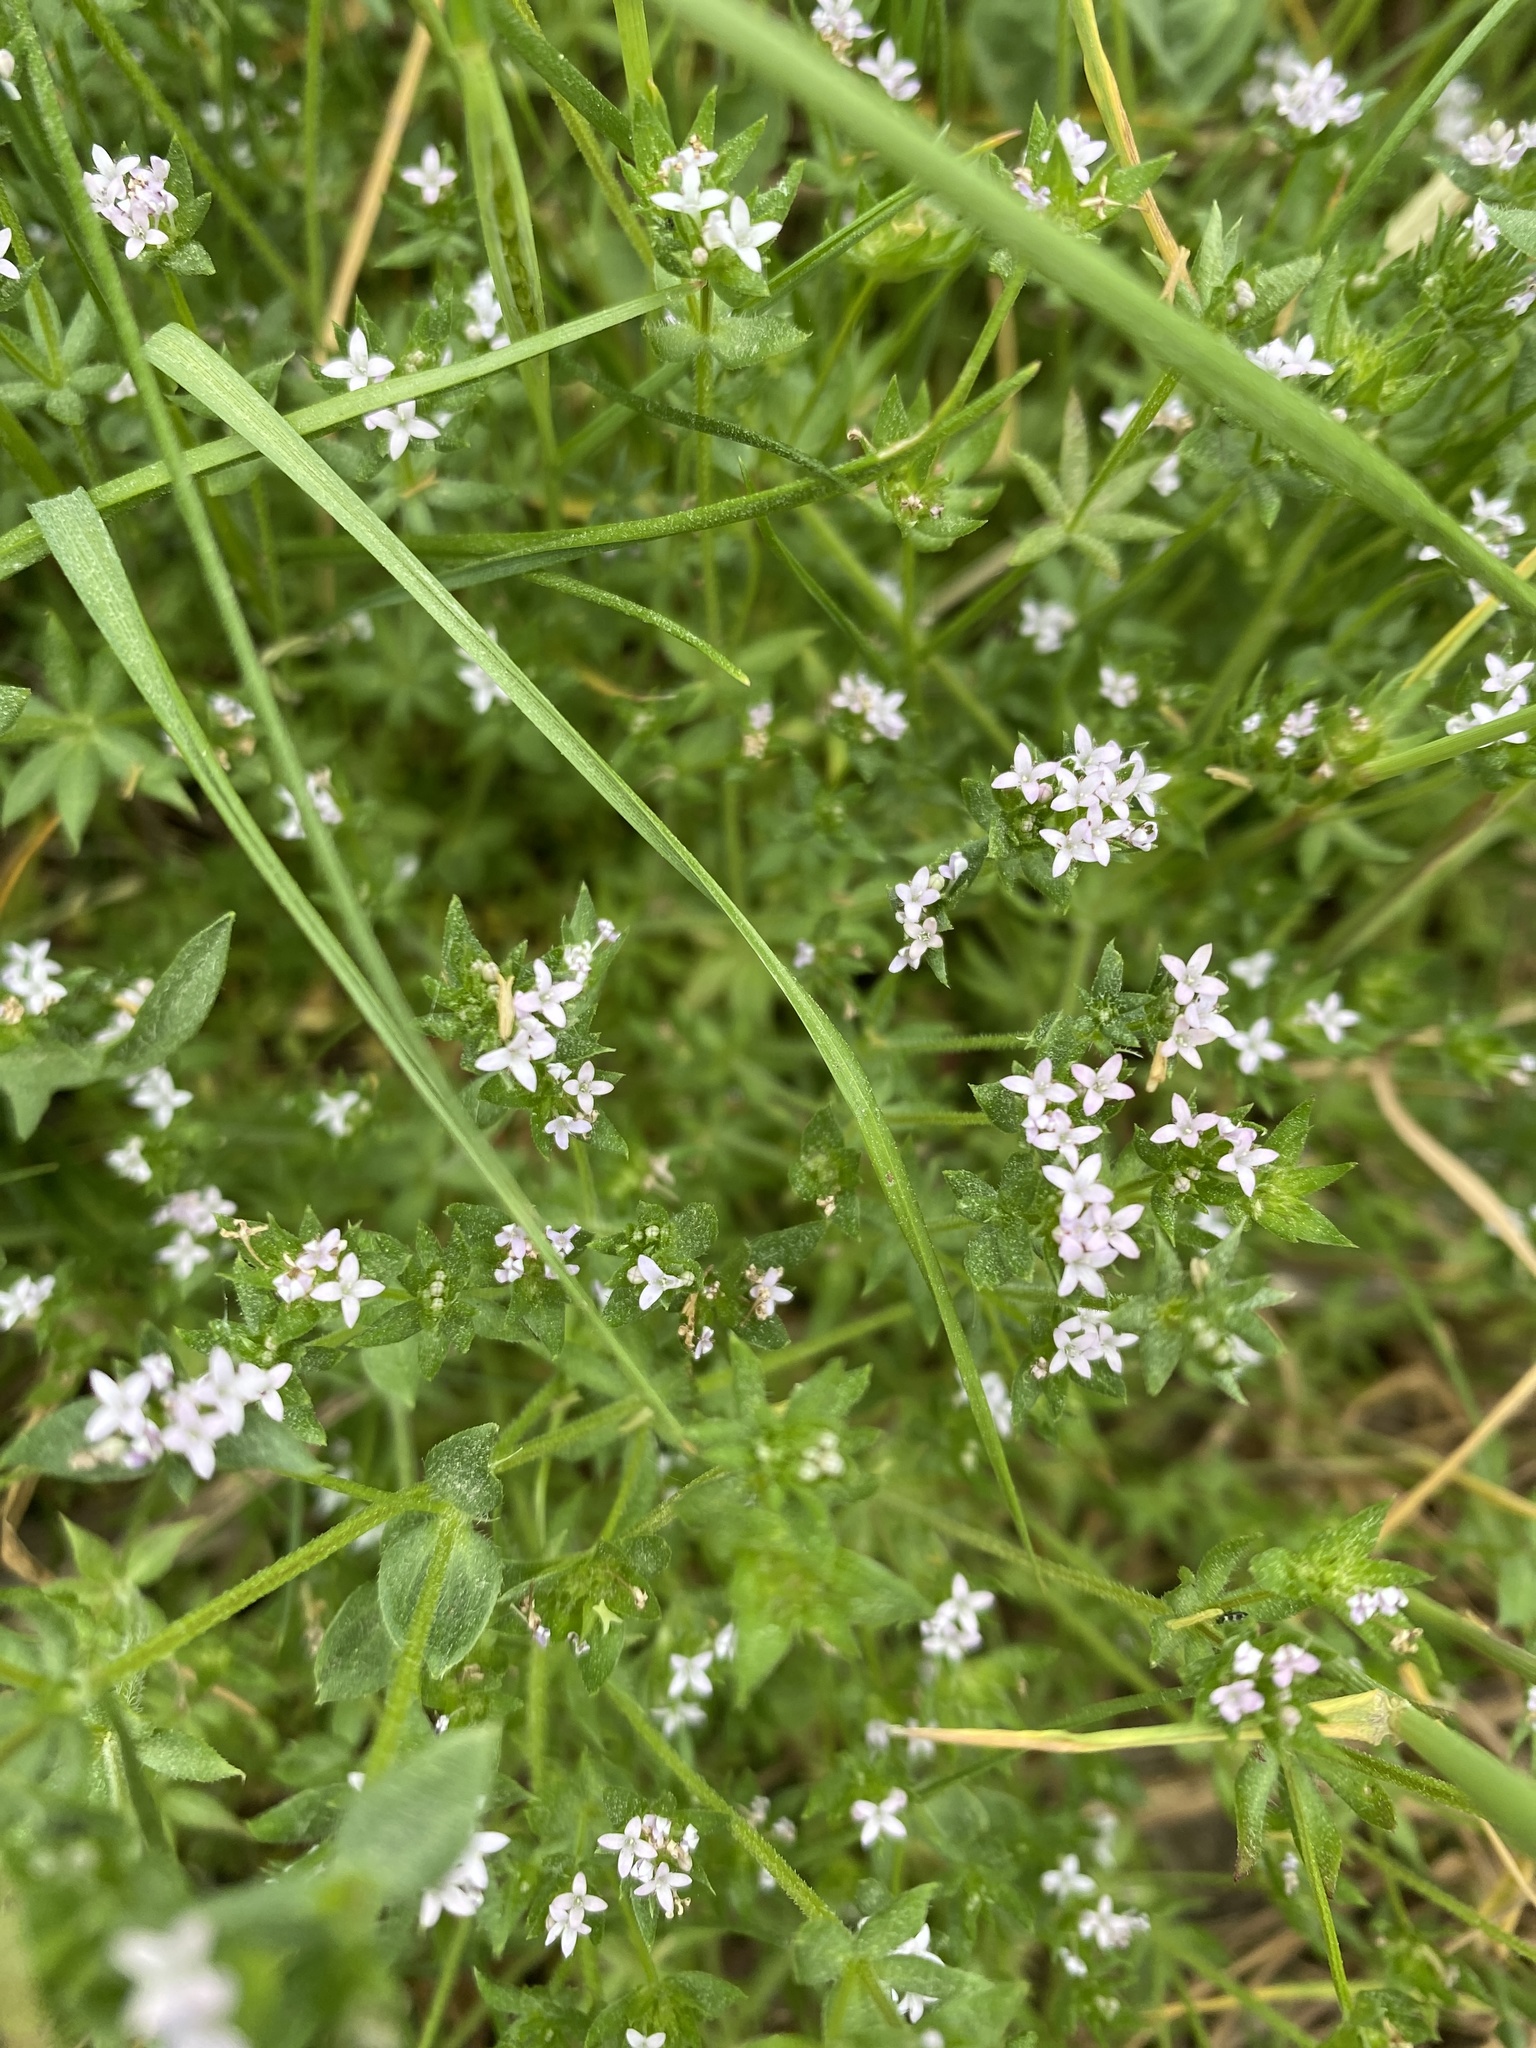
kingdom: Plantae
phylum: Tracheophyta
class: Magnoliopsida
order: Gentianales
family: Rubiaceae
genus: Sherardia
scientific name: Sherardia arvensis
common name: Field madder
